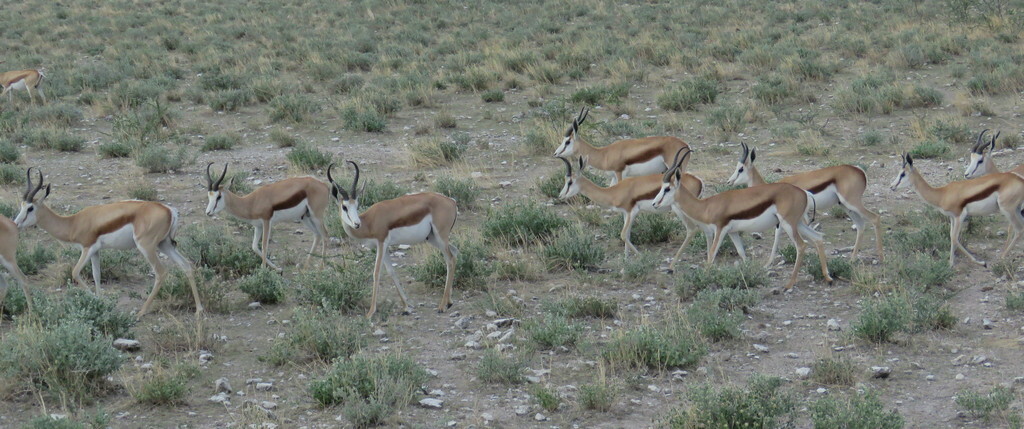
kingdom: Animalia
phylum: Chordata
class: Mammalia
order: Artiodactyla
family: Bovidae
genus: Antidorcas
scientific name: Antidorcas marsupialis
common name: Springbok
